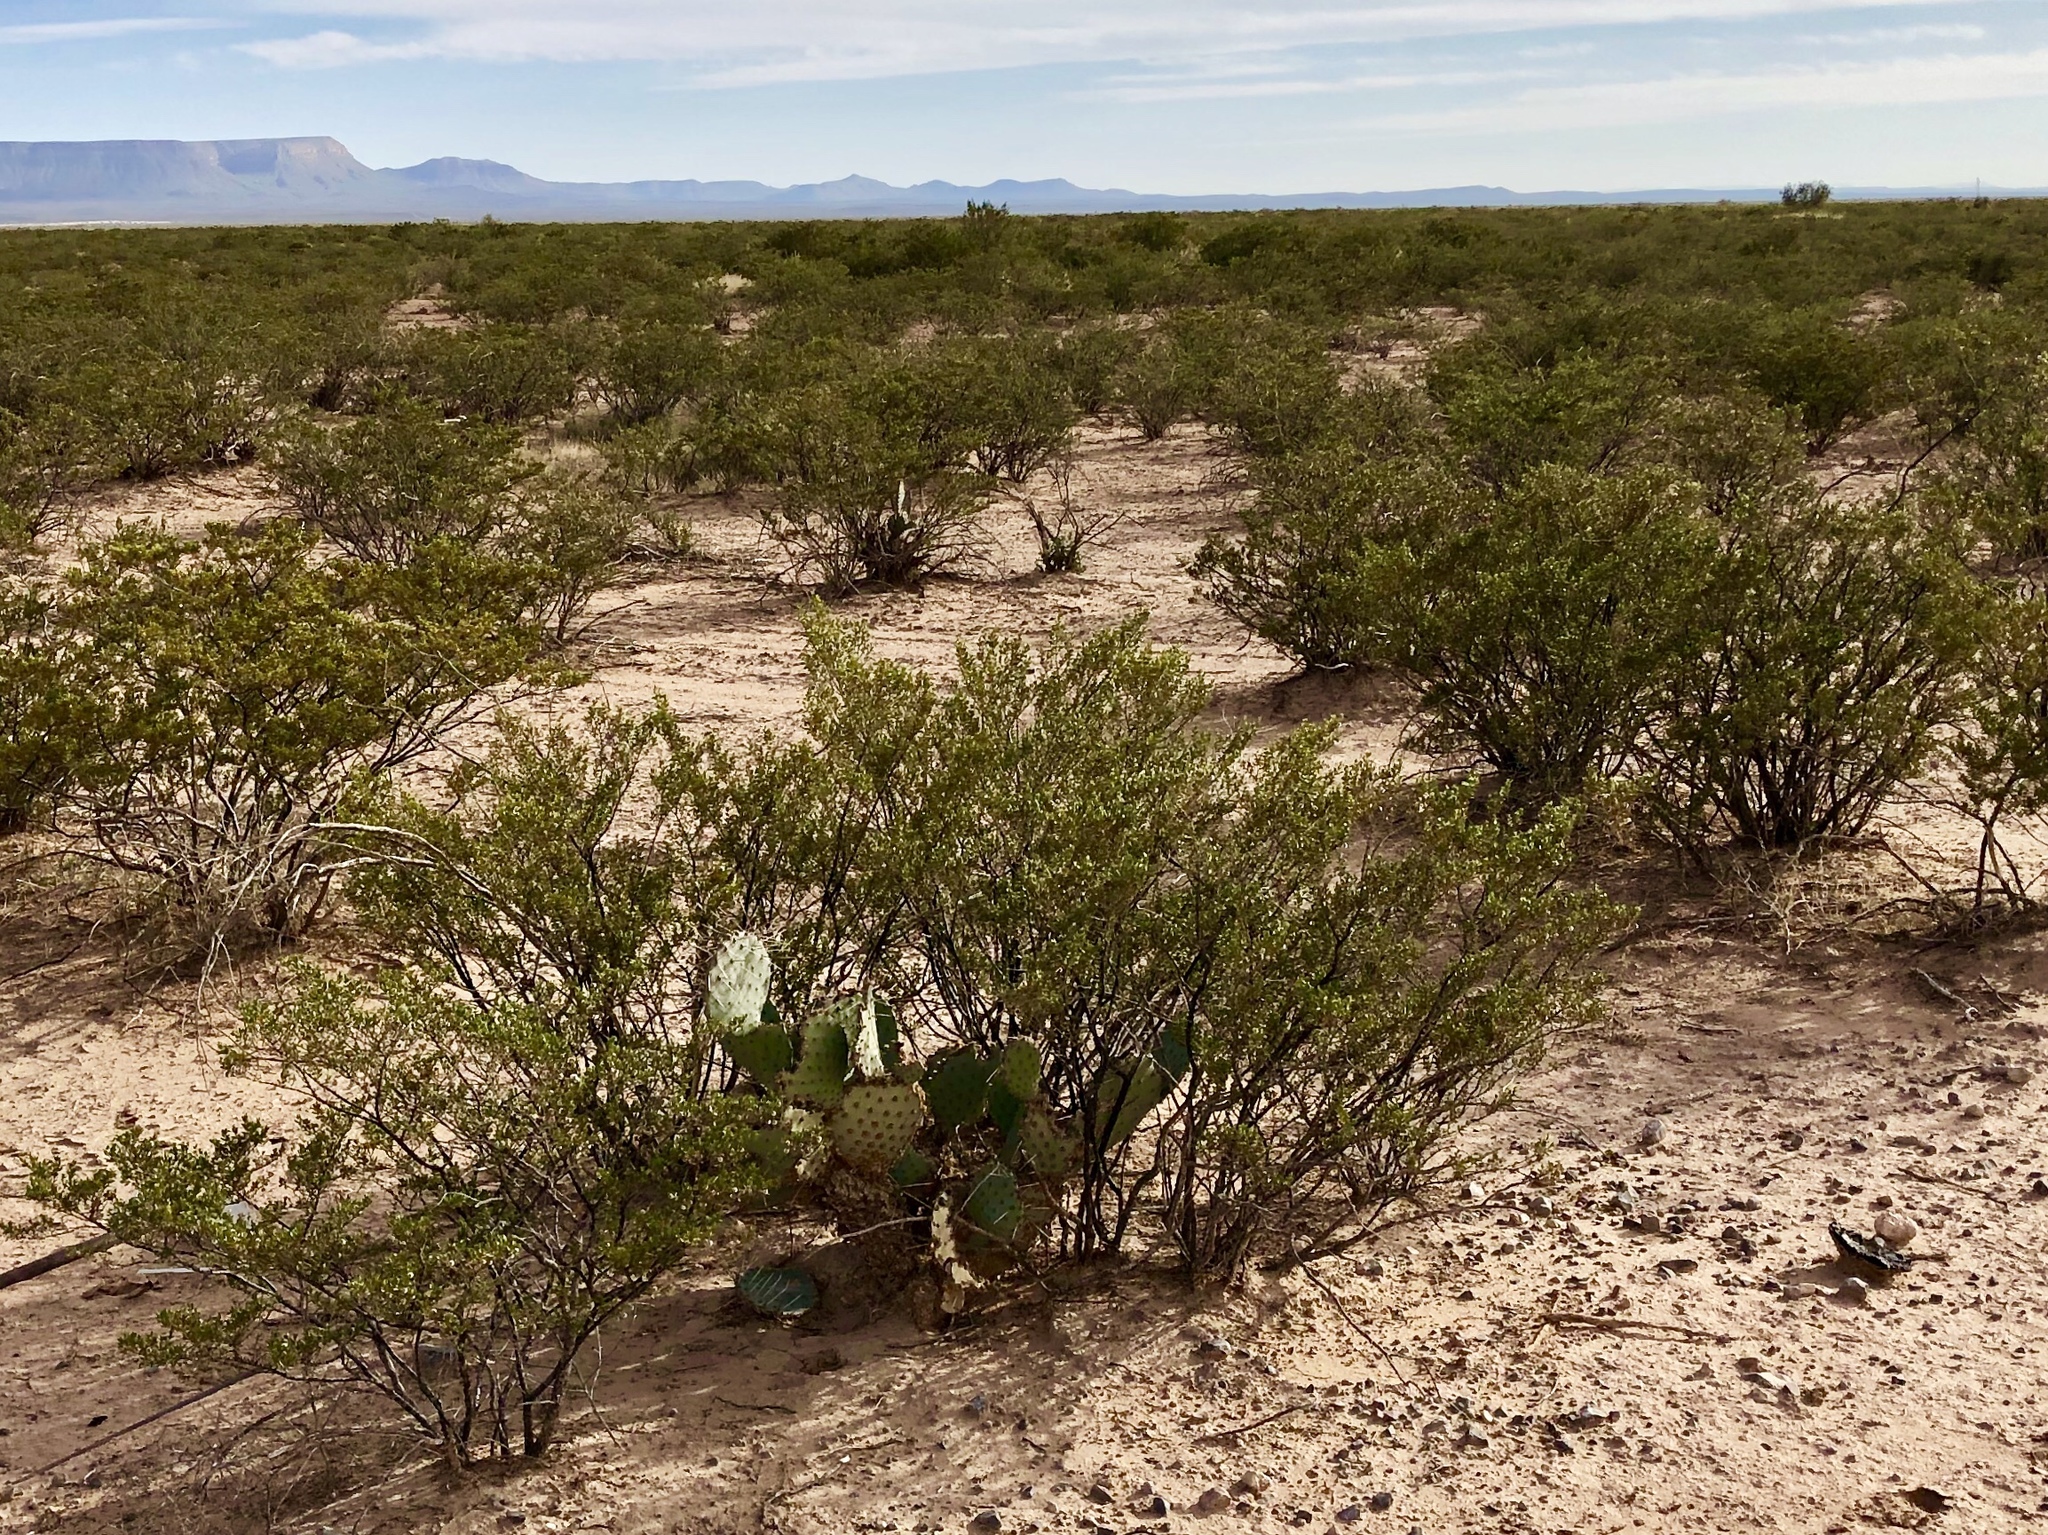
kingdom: Plantae
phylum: Tracheophyta
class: Magnoliopsida
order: Zygophyllales
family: Zygophyllaceae
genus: Larrea
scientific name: Larrea tridentata
